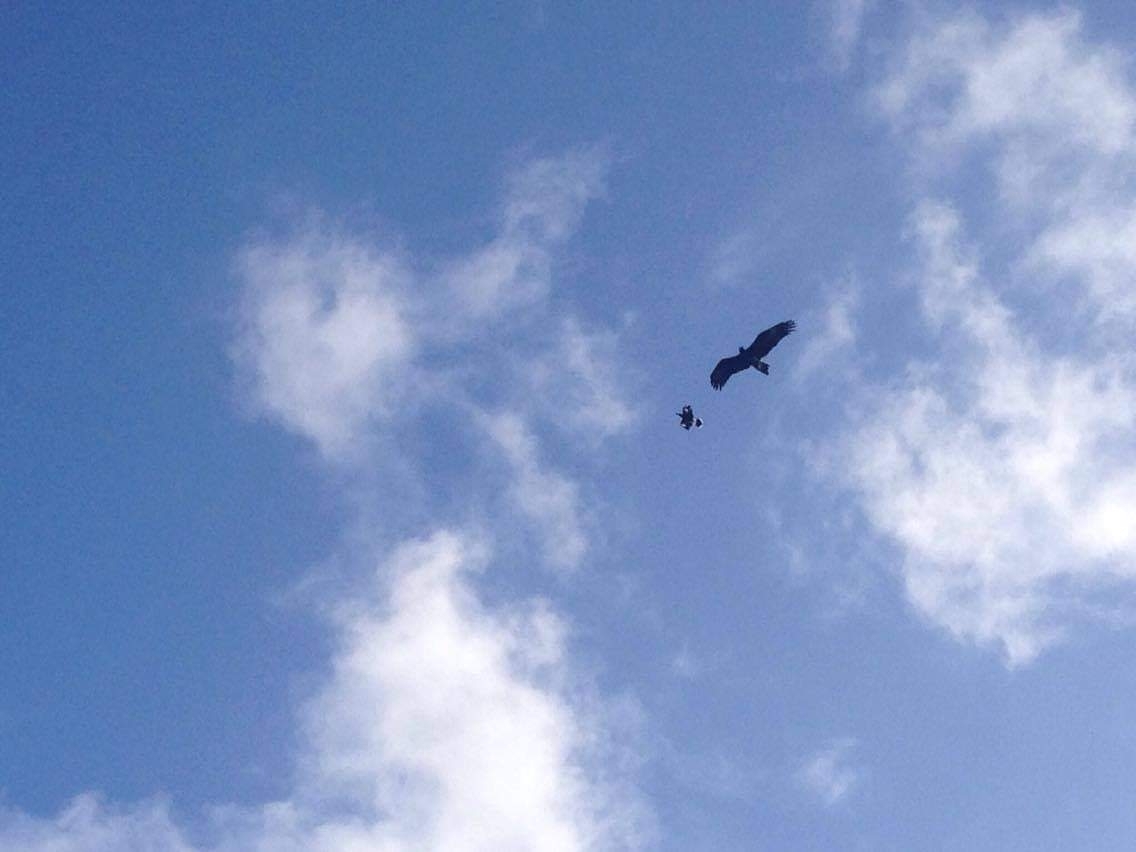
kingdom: Animalia
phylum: Chordata
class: Aves
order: Accipitriformes
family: Accipitridae
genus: Aquila
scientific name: Aquila audax
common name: Wedge-tailed eagle
